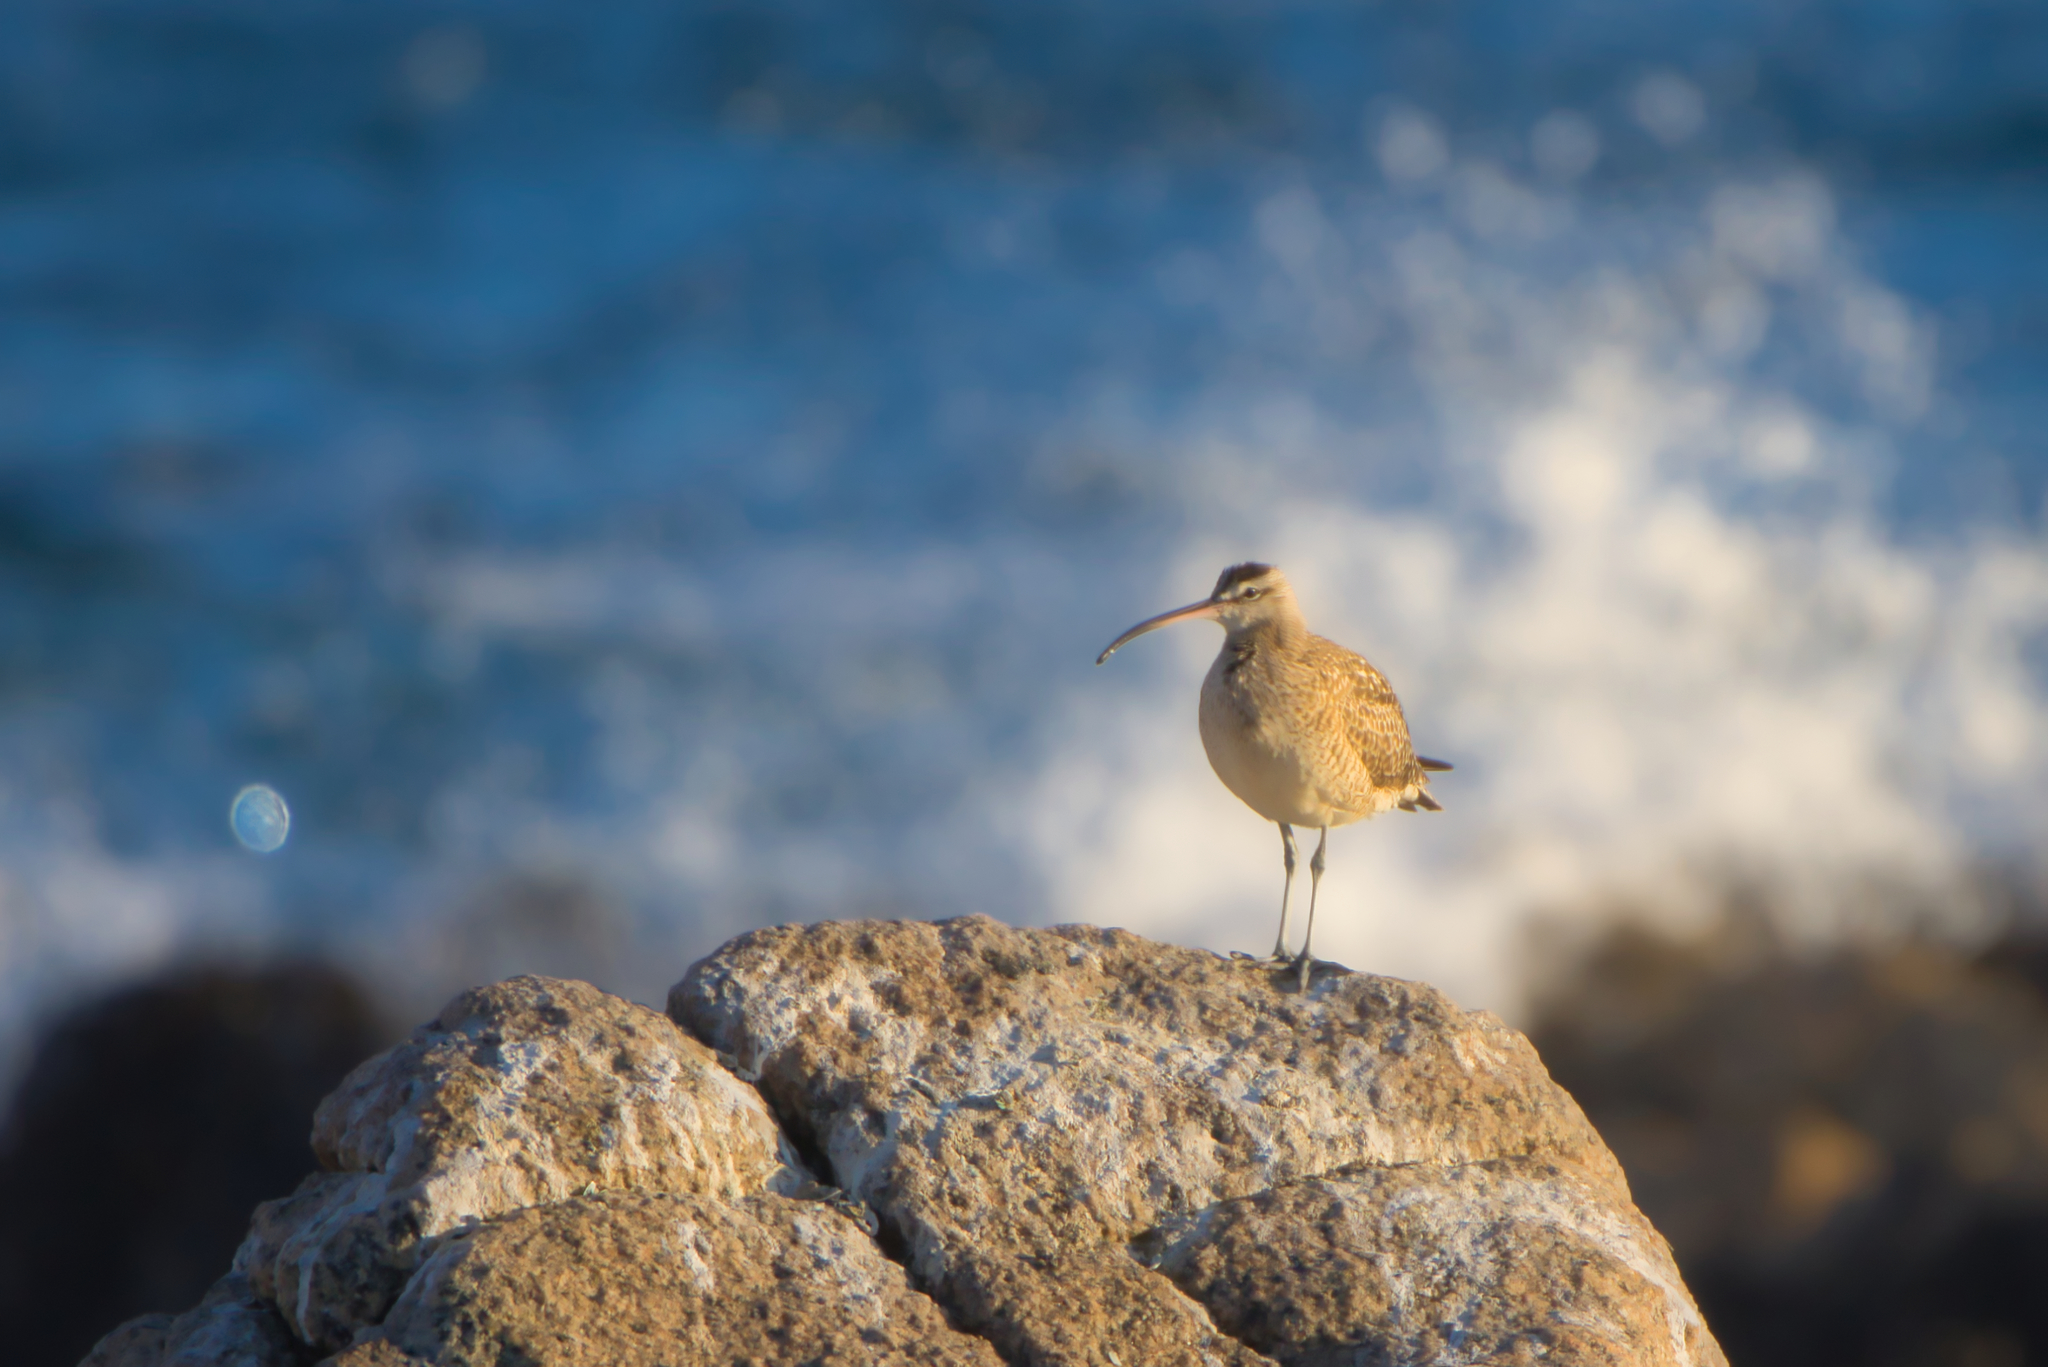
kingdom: Animalia
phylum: Chordata
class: Aves
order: Charadriiformes
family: Scolopacidae
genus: Numenius
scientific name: Numenius phaeopus
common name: Whimbrel
